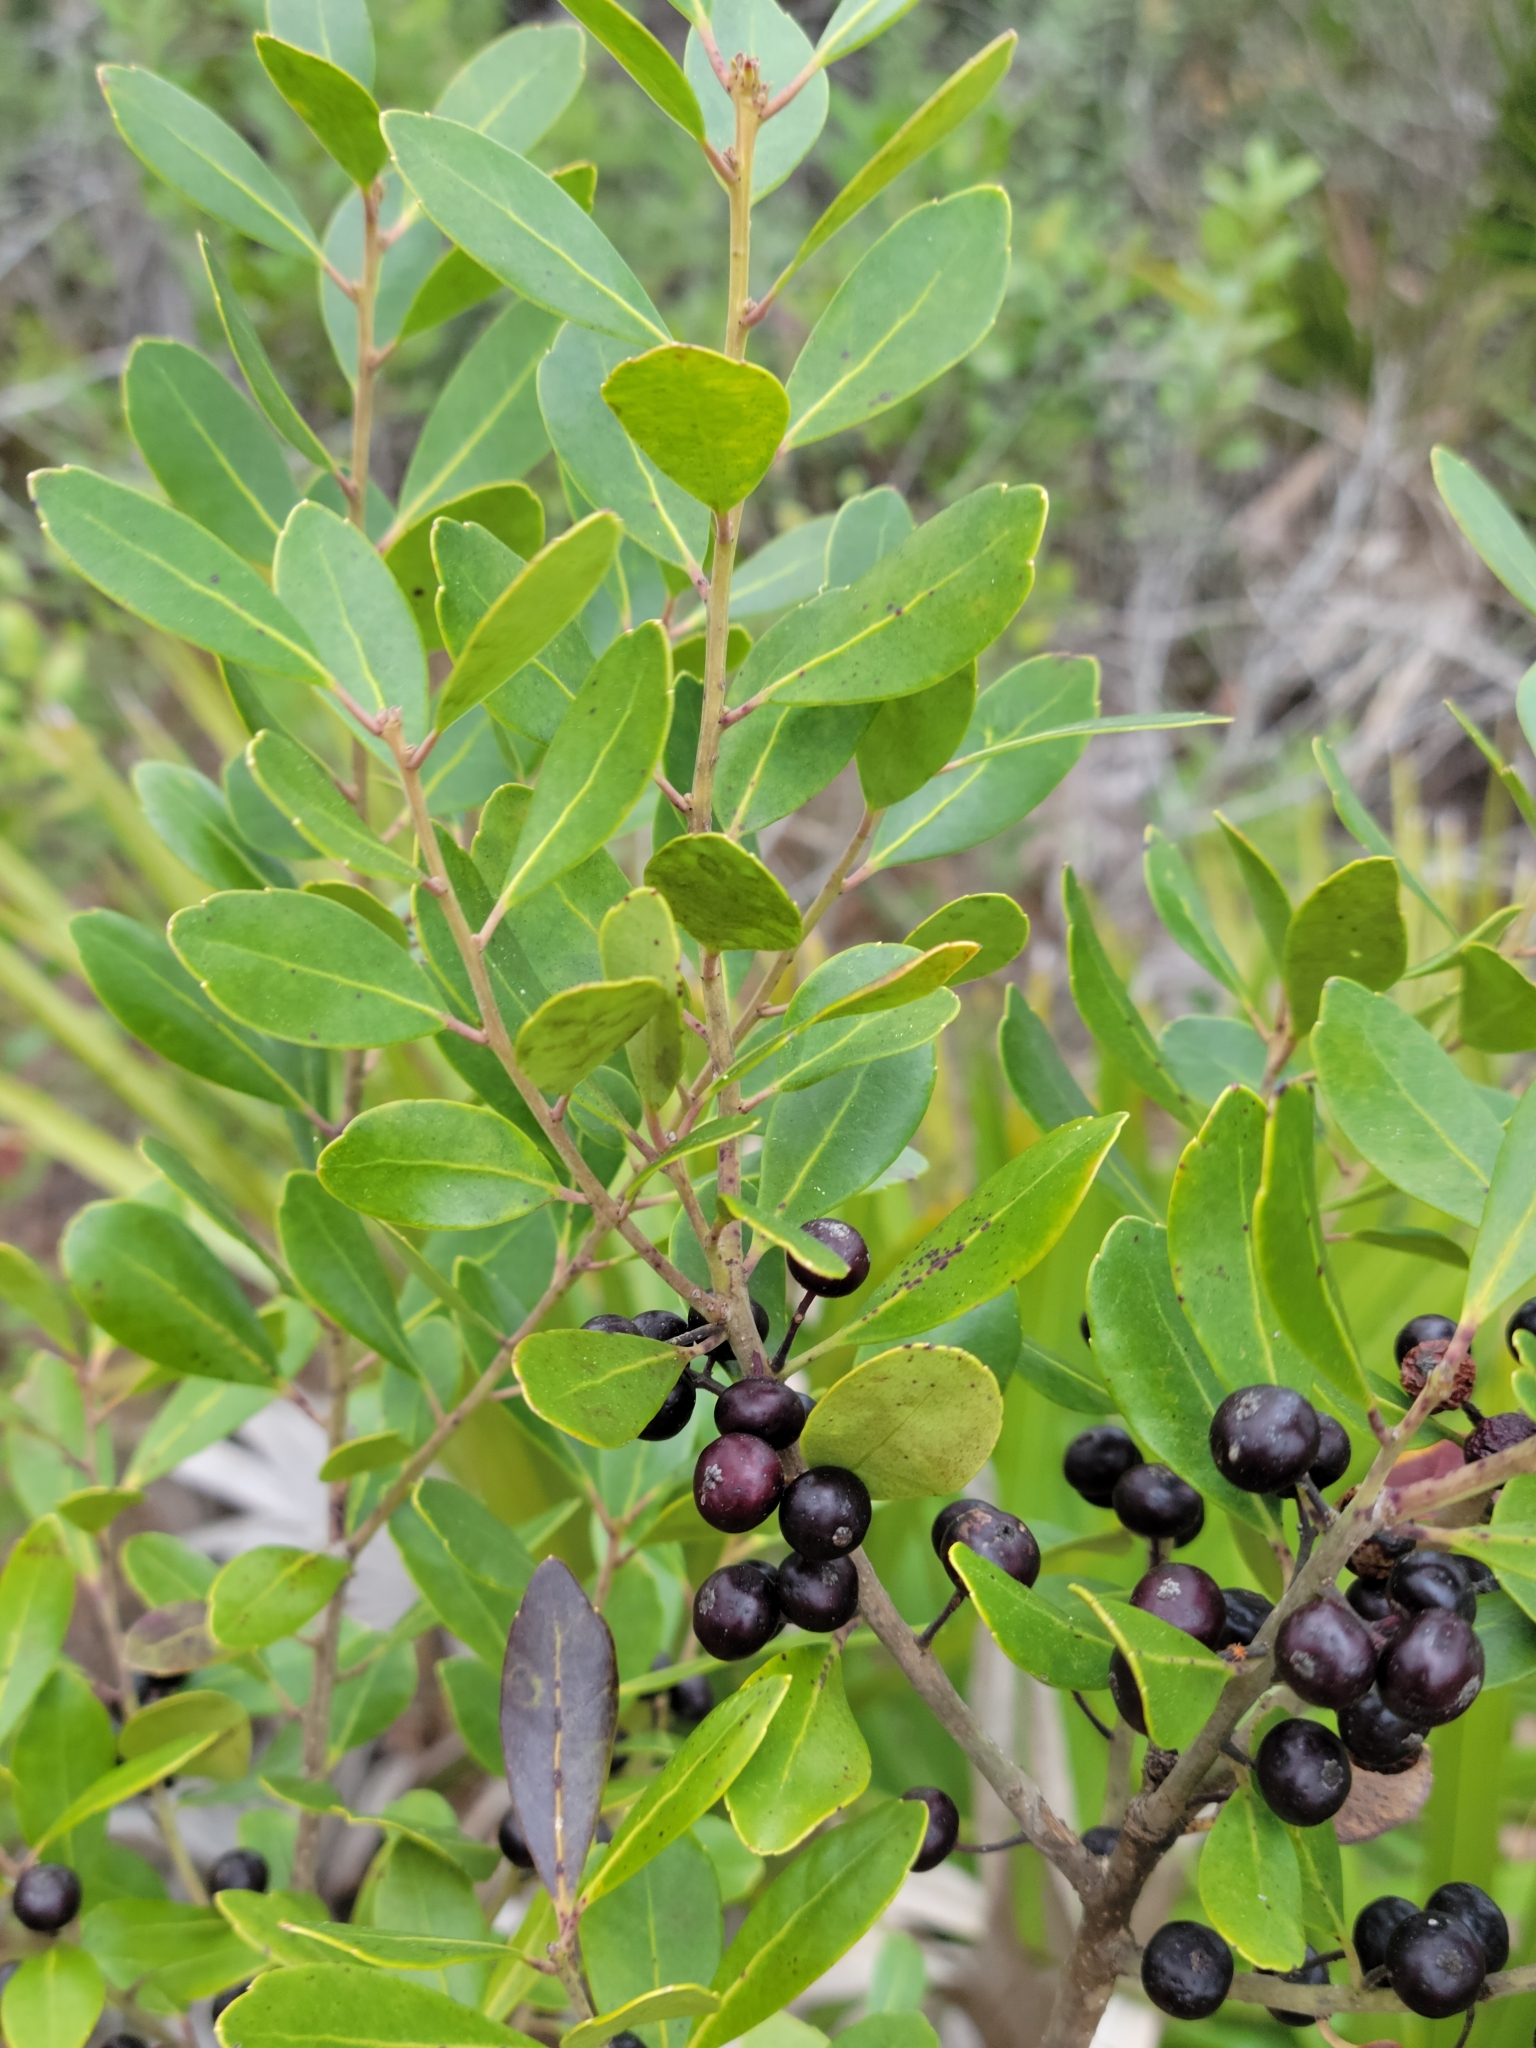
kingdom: Plantae
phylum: Tracheophyta
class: Magnoliopsida
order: Aquifoliales
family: Aquifoliaceae
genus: Ilex
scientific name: Ilex glabra
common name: Bitter gallberry
